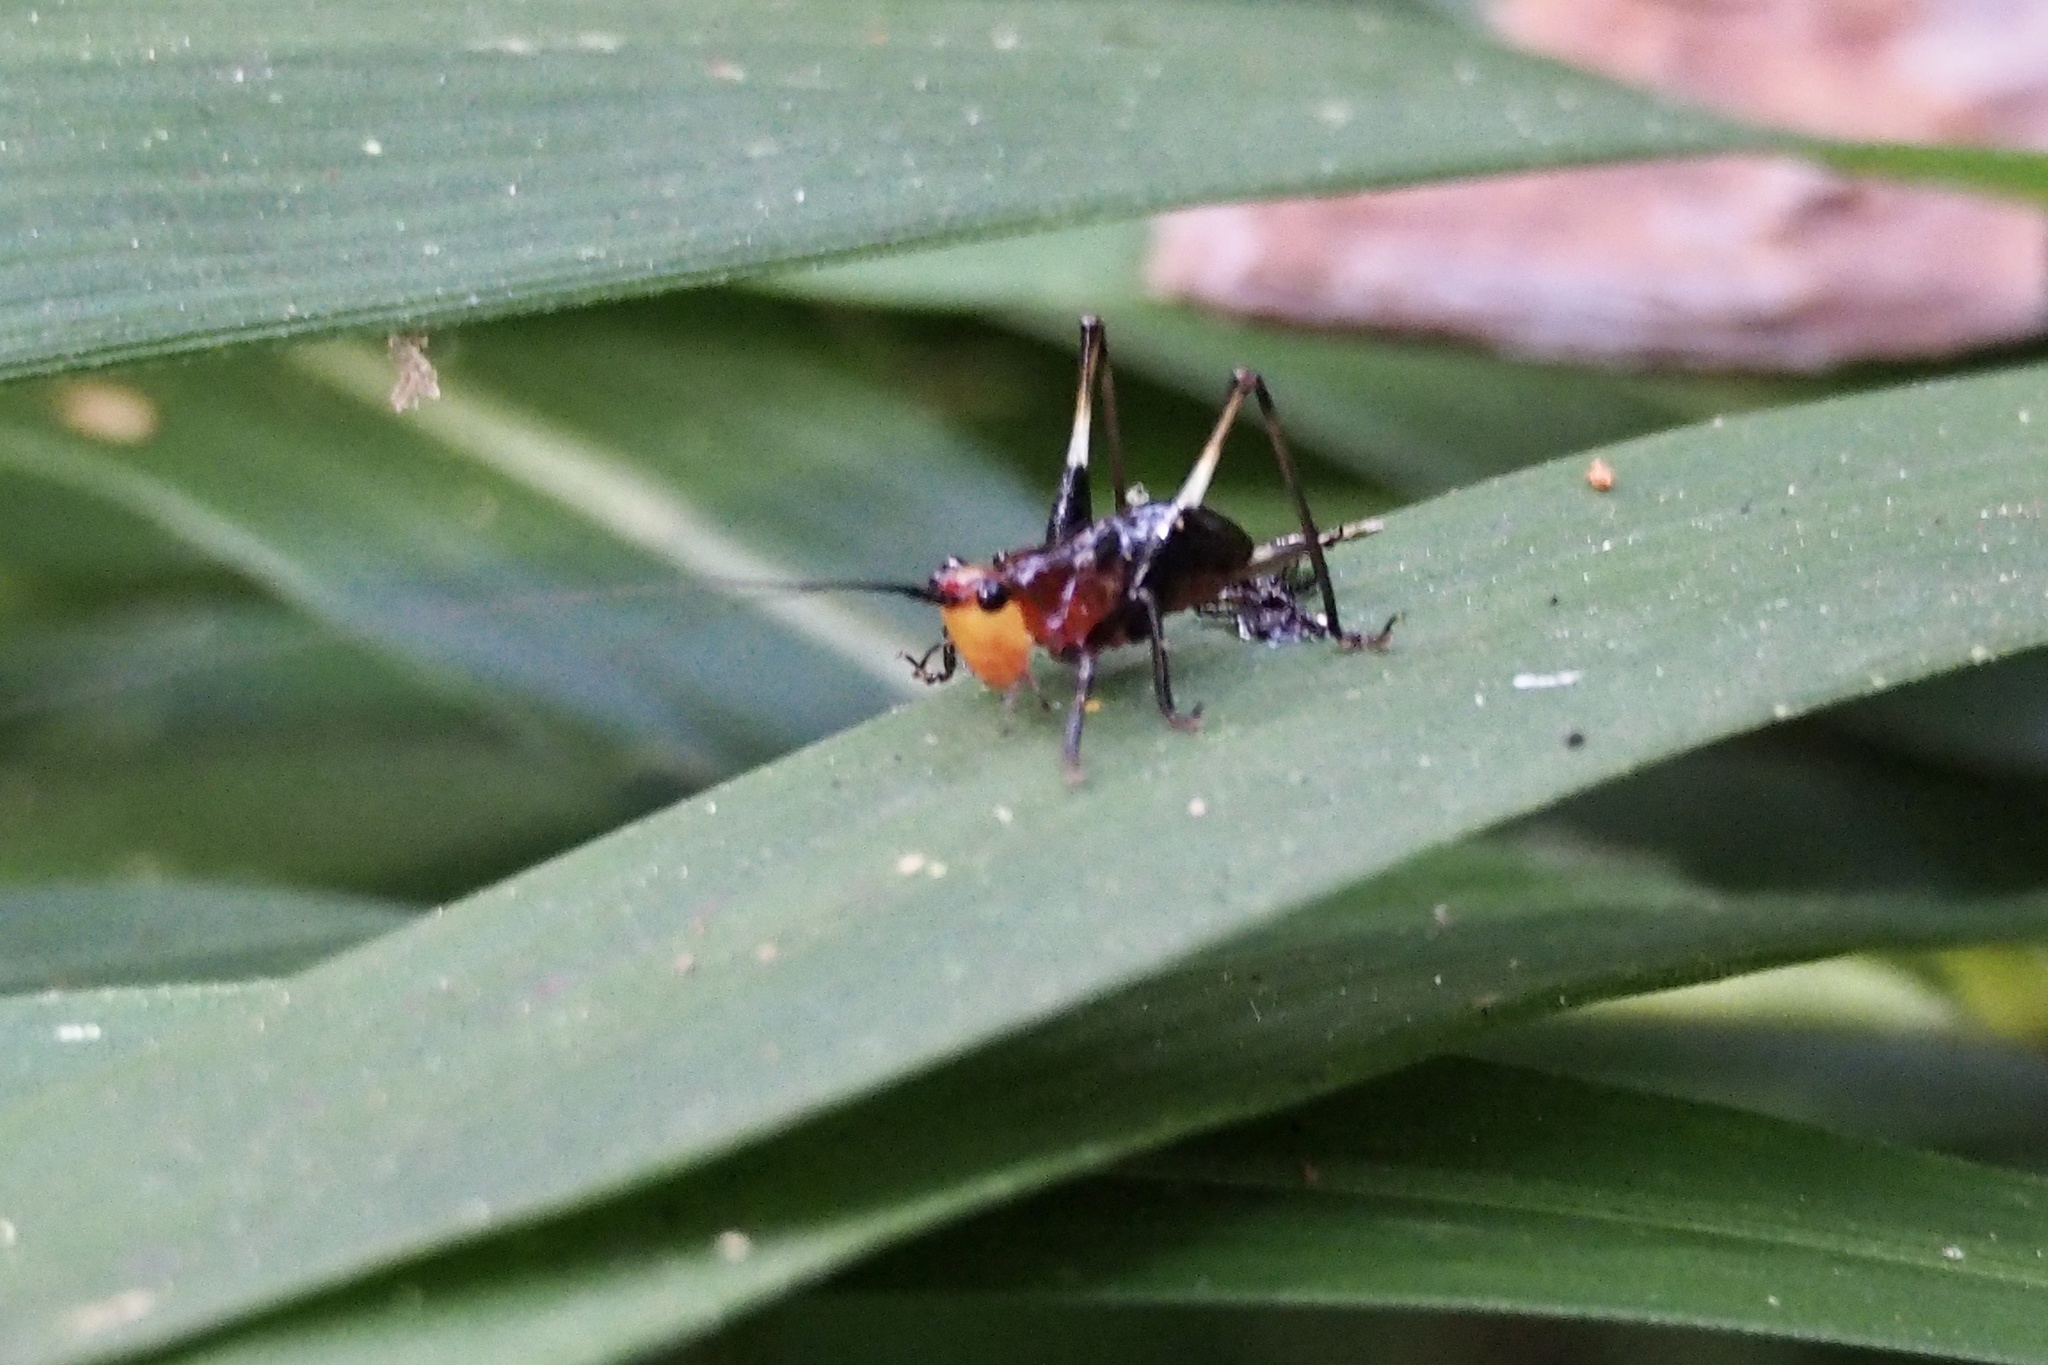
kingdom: Animalia
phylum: Arthropoda
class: Insecta
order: Orthoptera
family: Tettigoniidae
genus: Conocephalus
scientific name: Conocephalus melaenus
